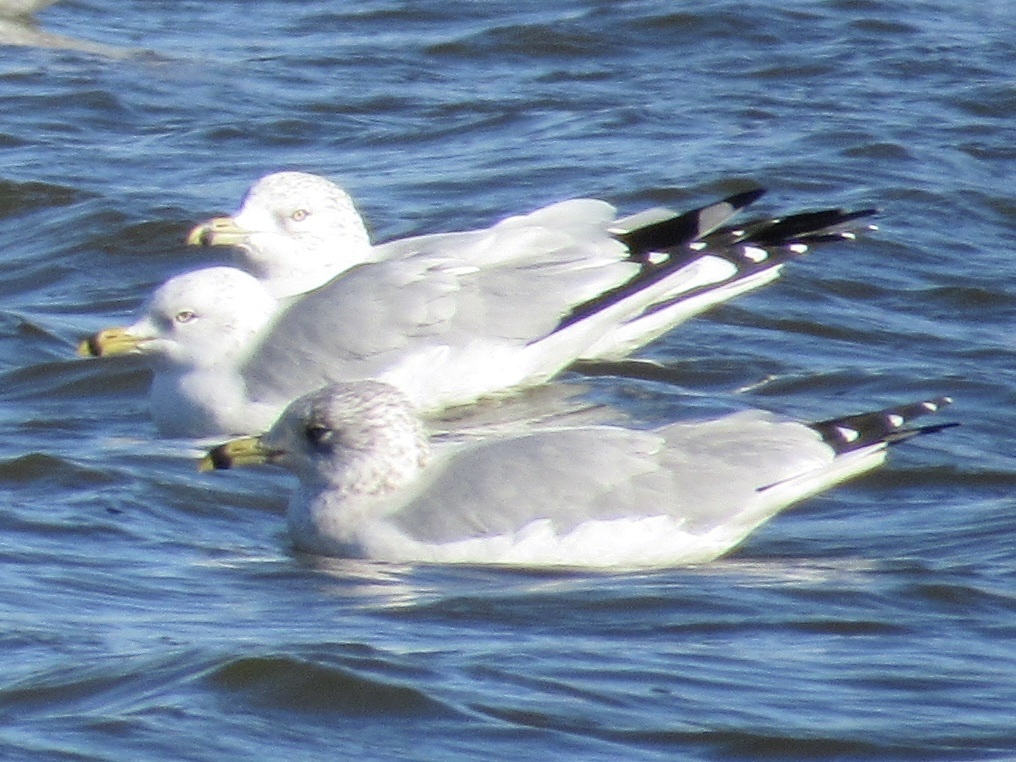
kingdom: Animalia
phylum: Chordata
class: Aves
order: Charadriiformes
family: Laridae
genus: Larus
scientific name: Larus delawarensis
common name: Ring-billed gull
